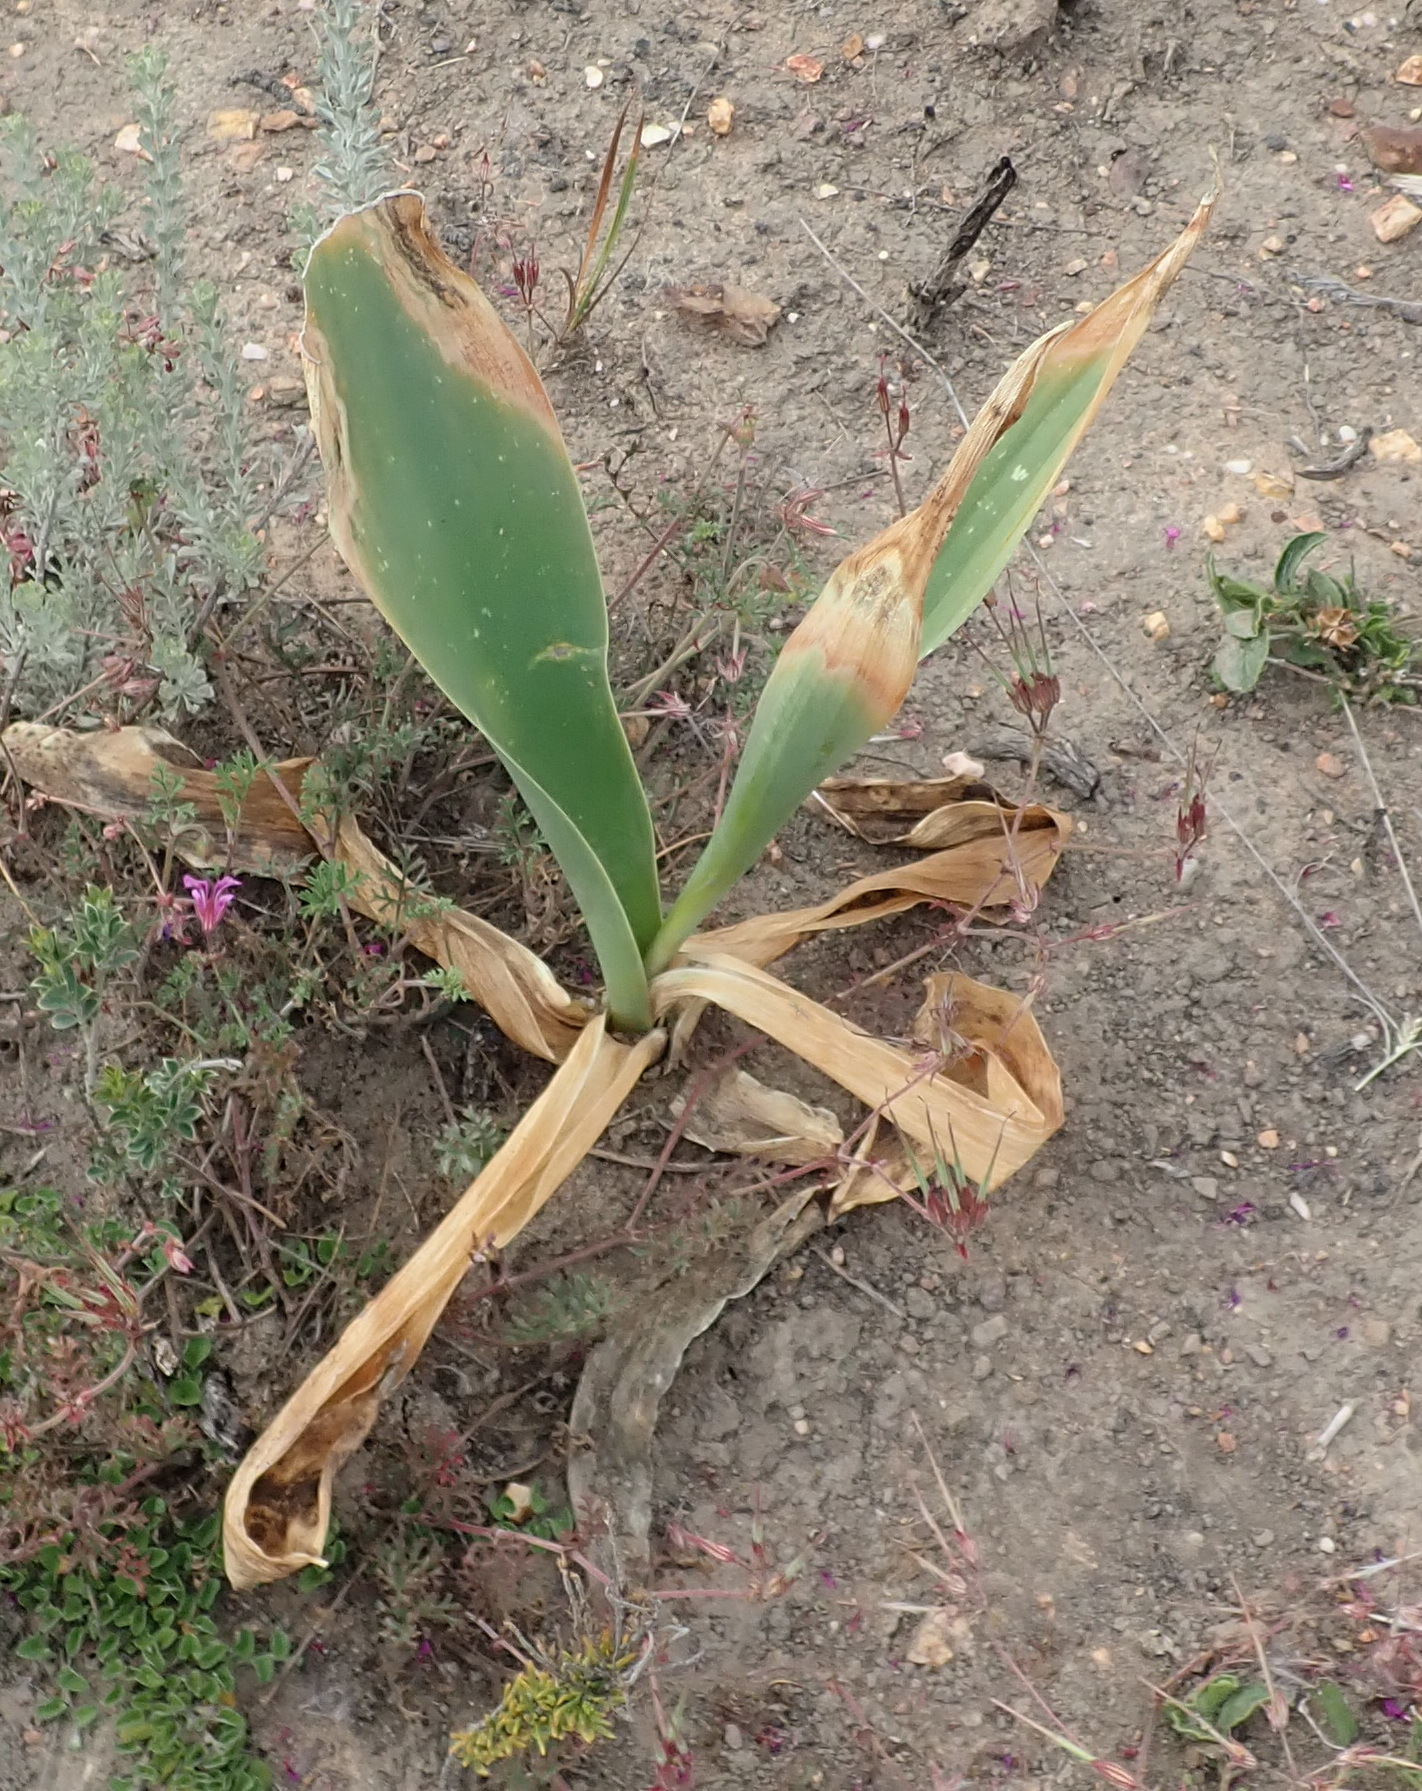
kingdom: Plantae
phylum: Tracheophyta
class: Liliopsida
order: Asparagales
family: Asparagaceae
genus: Drimia
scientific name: Drimia capensis
